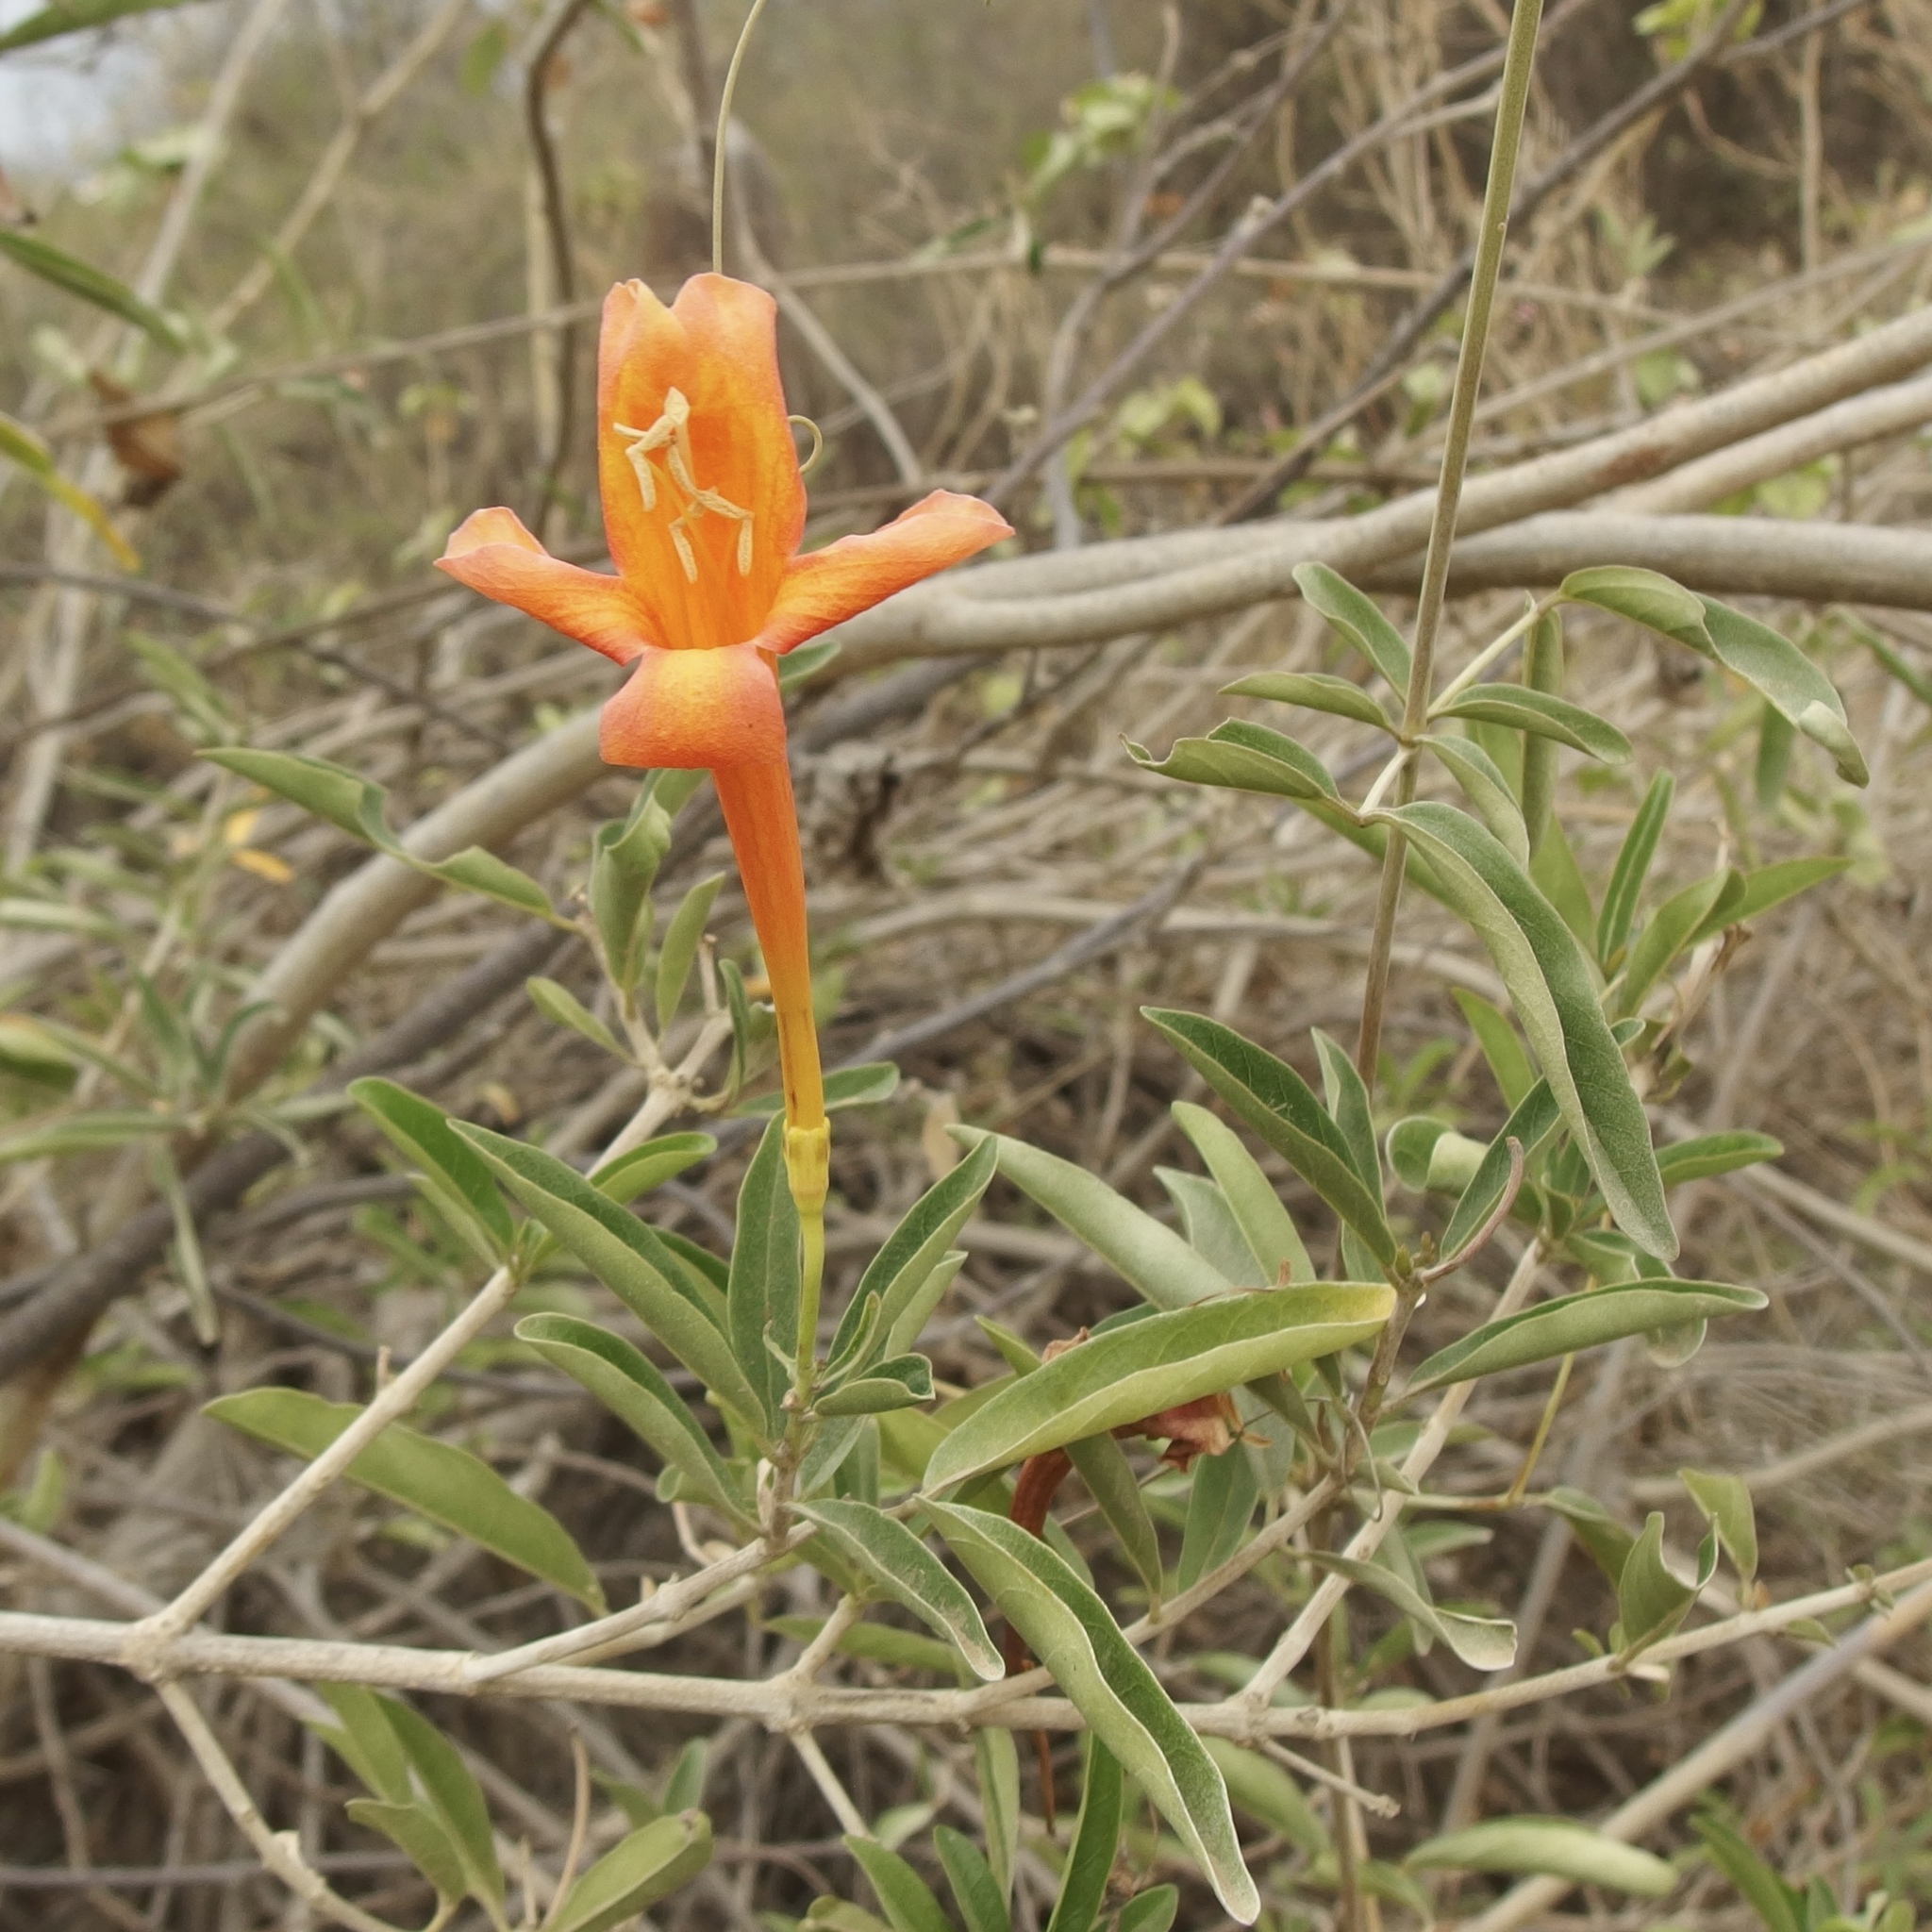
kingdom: Plantae
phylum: Tracheophyta
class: Magnoliopsida
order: Lamiales
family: Bignoniaceae
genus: Bignonia
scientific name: Bignonia longiflora
